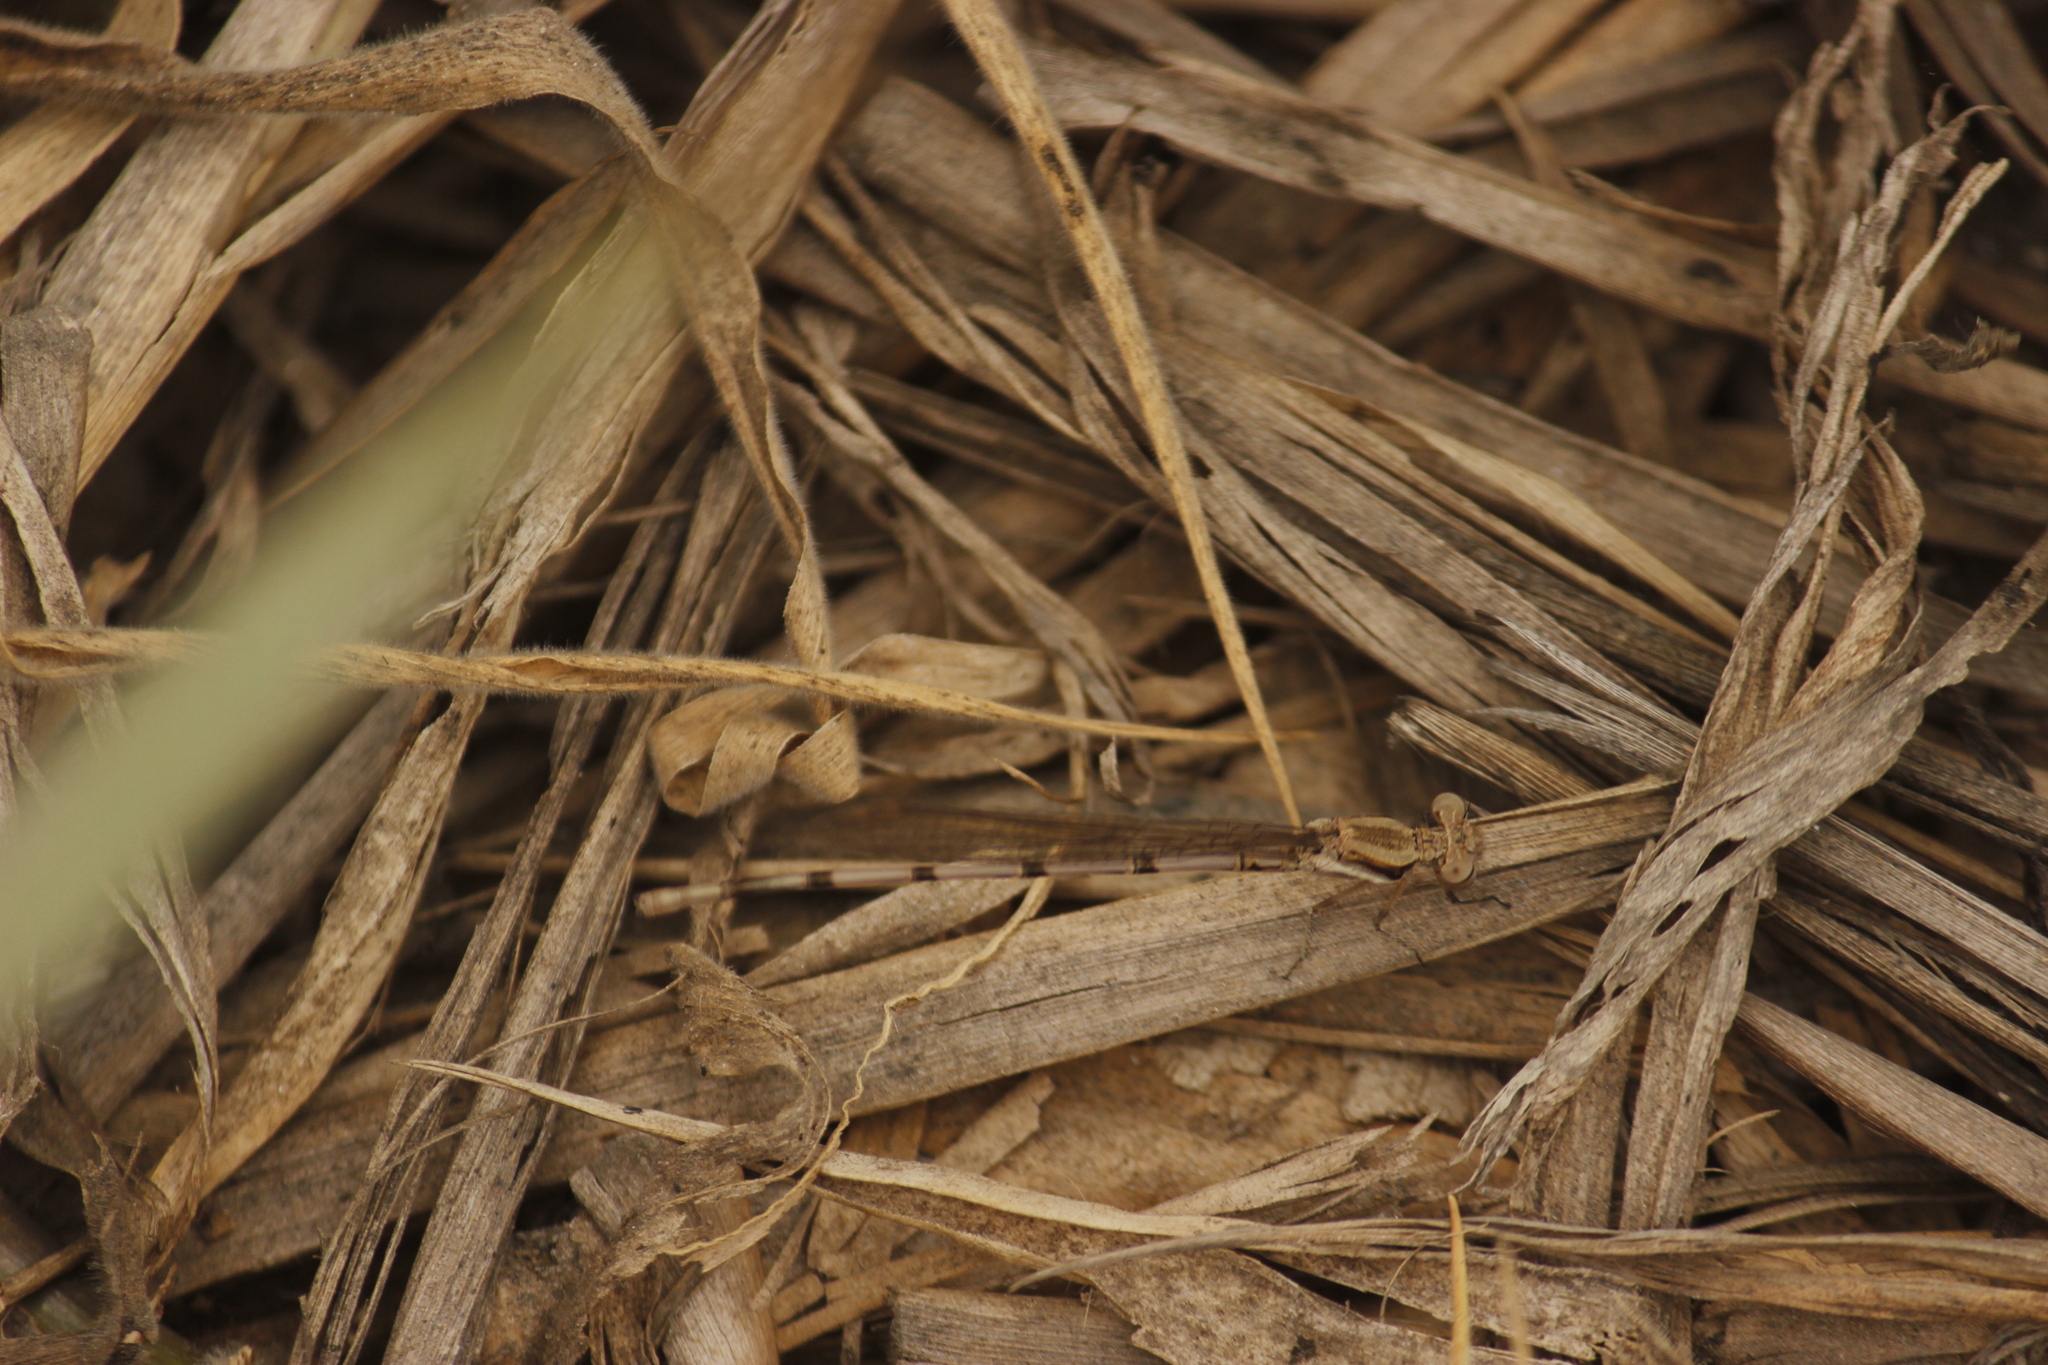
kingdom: Animalia
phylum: Arthropoda
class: Insecta
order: Odonata
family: Coenagrionidae
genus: Argia
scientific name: Argia inculta
